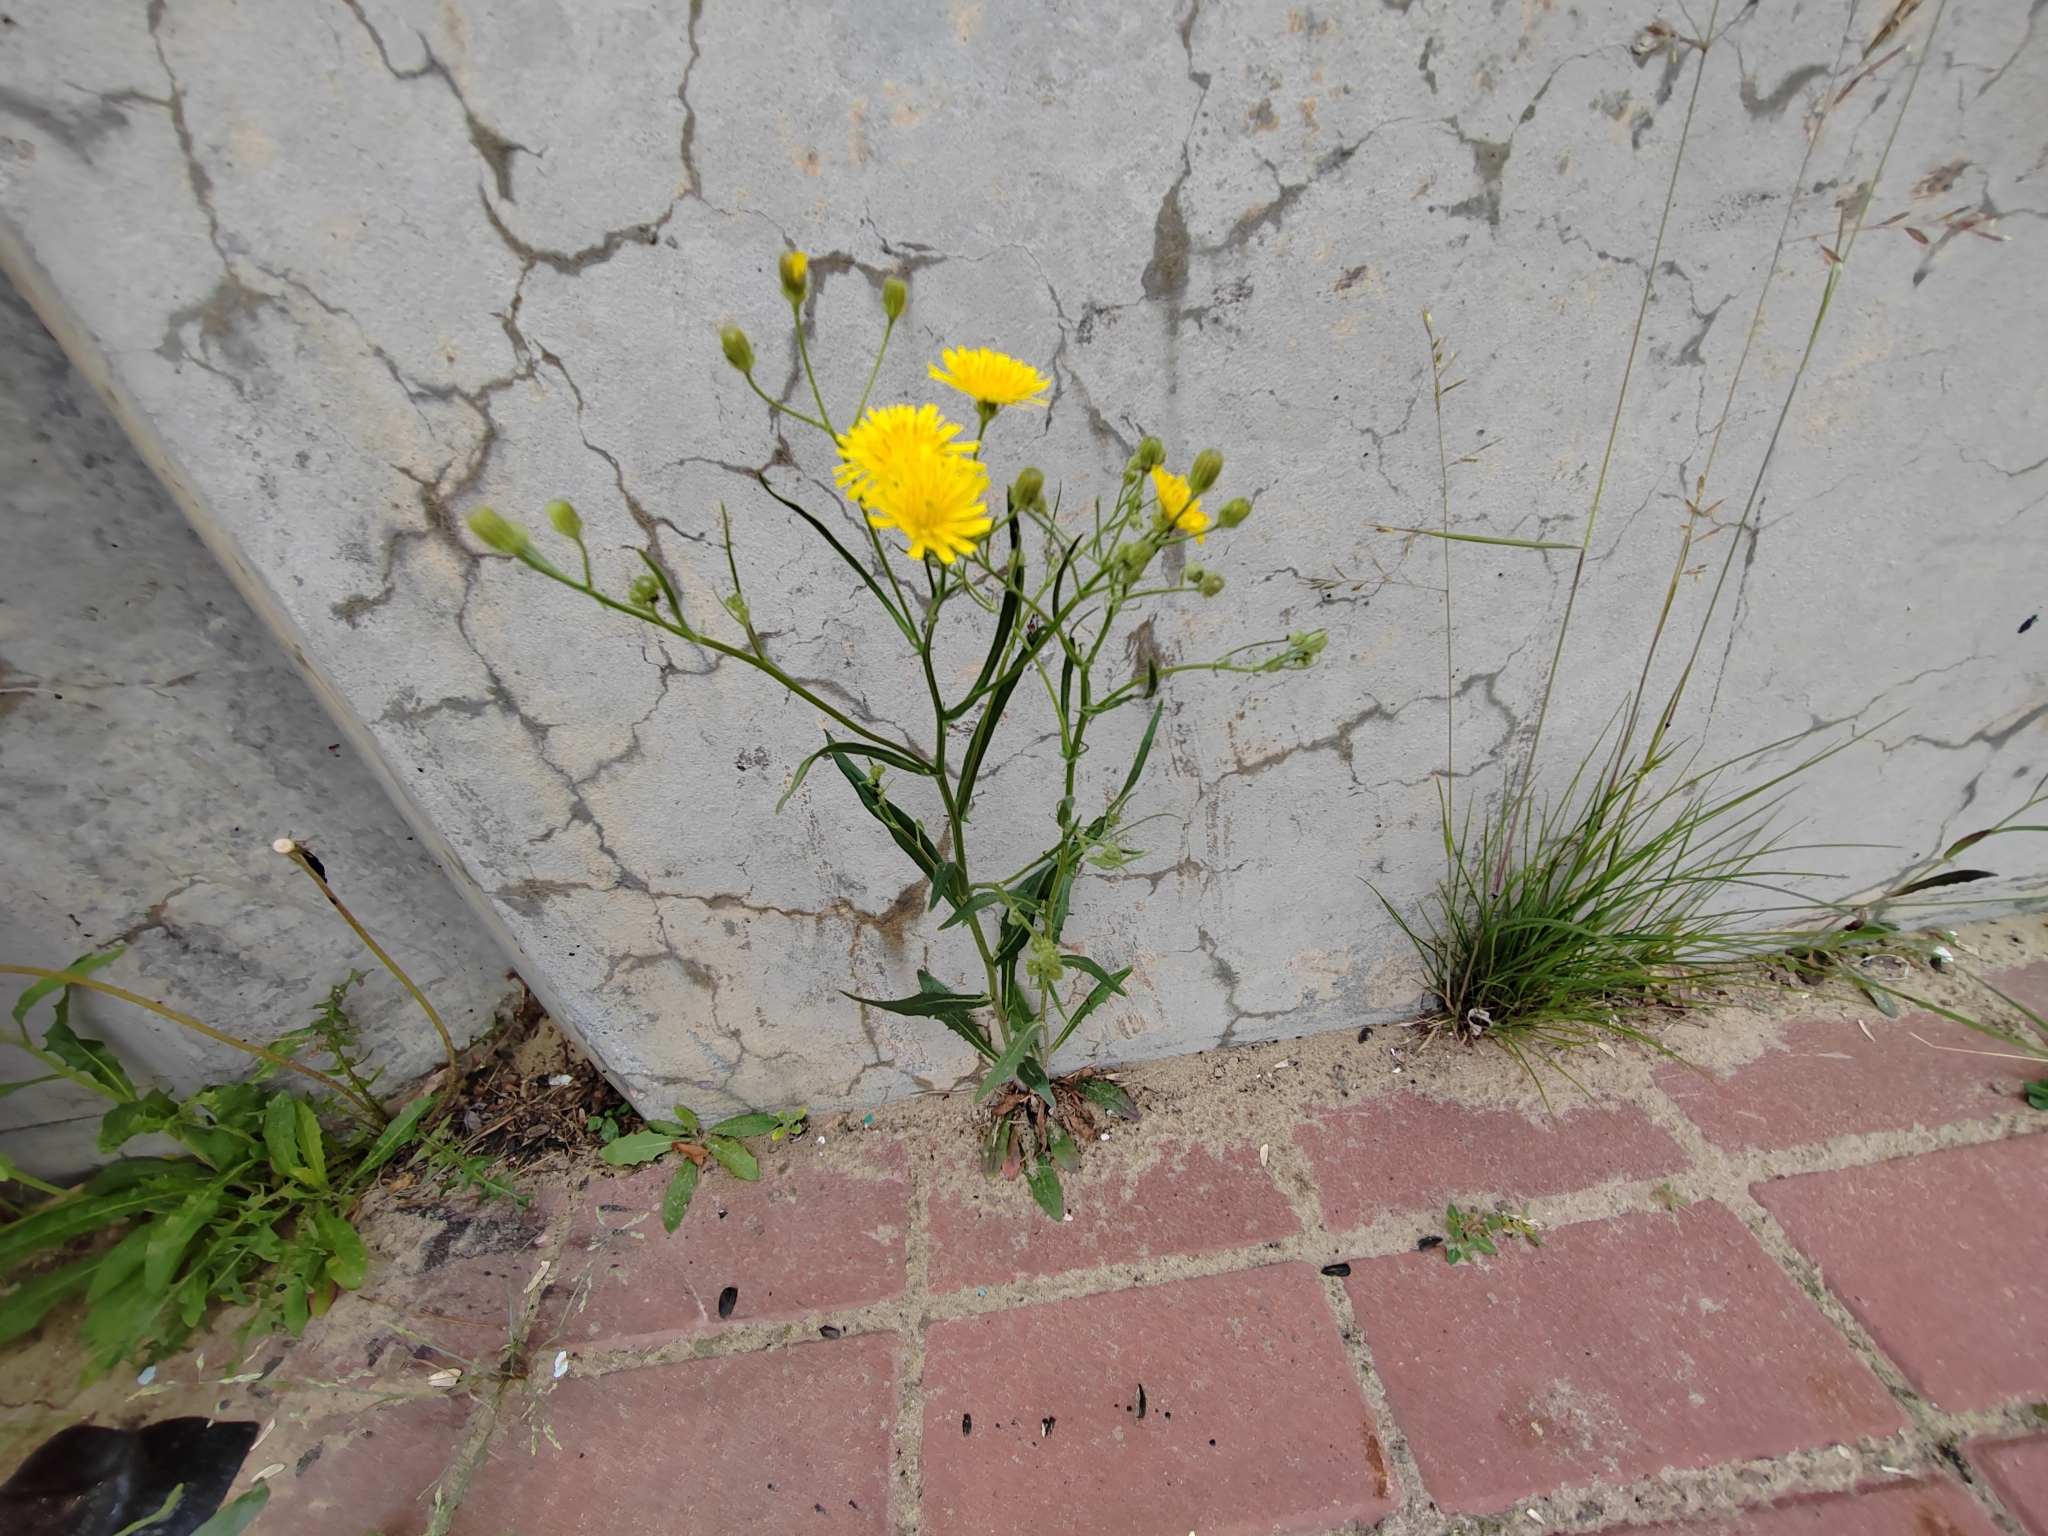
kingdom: Plantae
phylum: Tracheophyta
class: Magnoliopsida
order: Asterales
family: Asteraceae
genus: Crepis
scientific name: Crepis tectorum
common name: Narrow-leaved hawk's-beard
